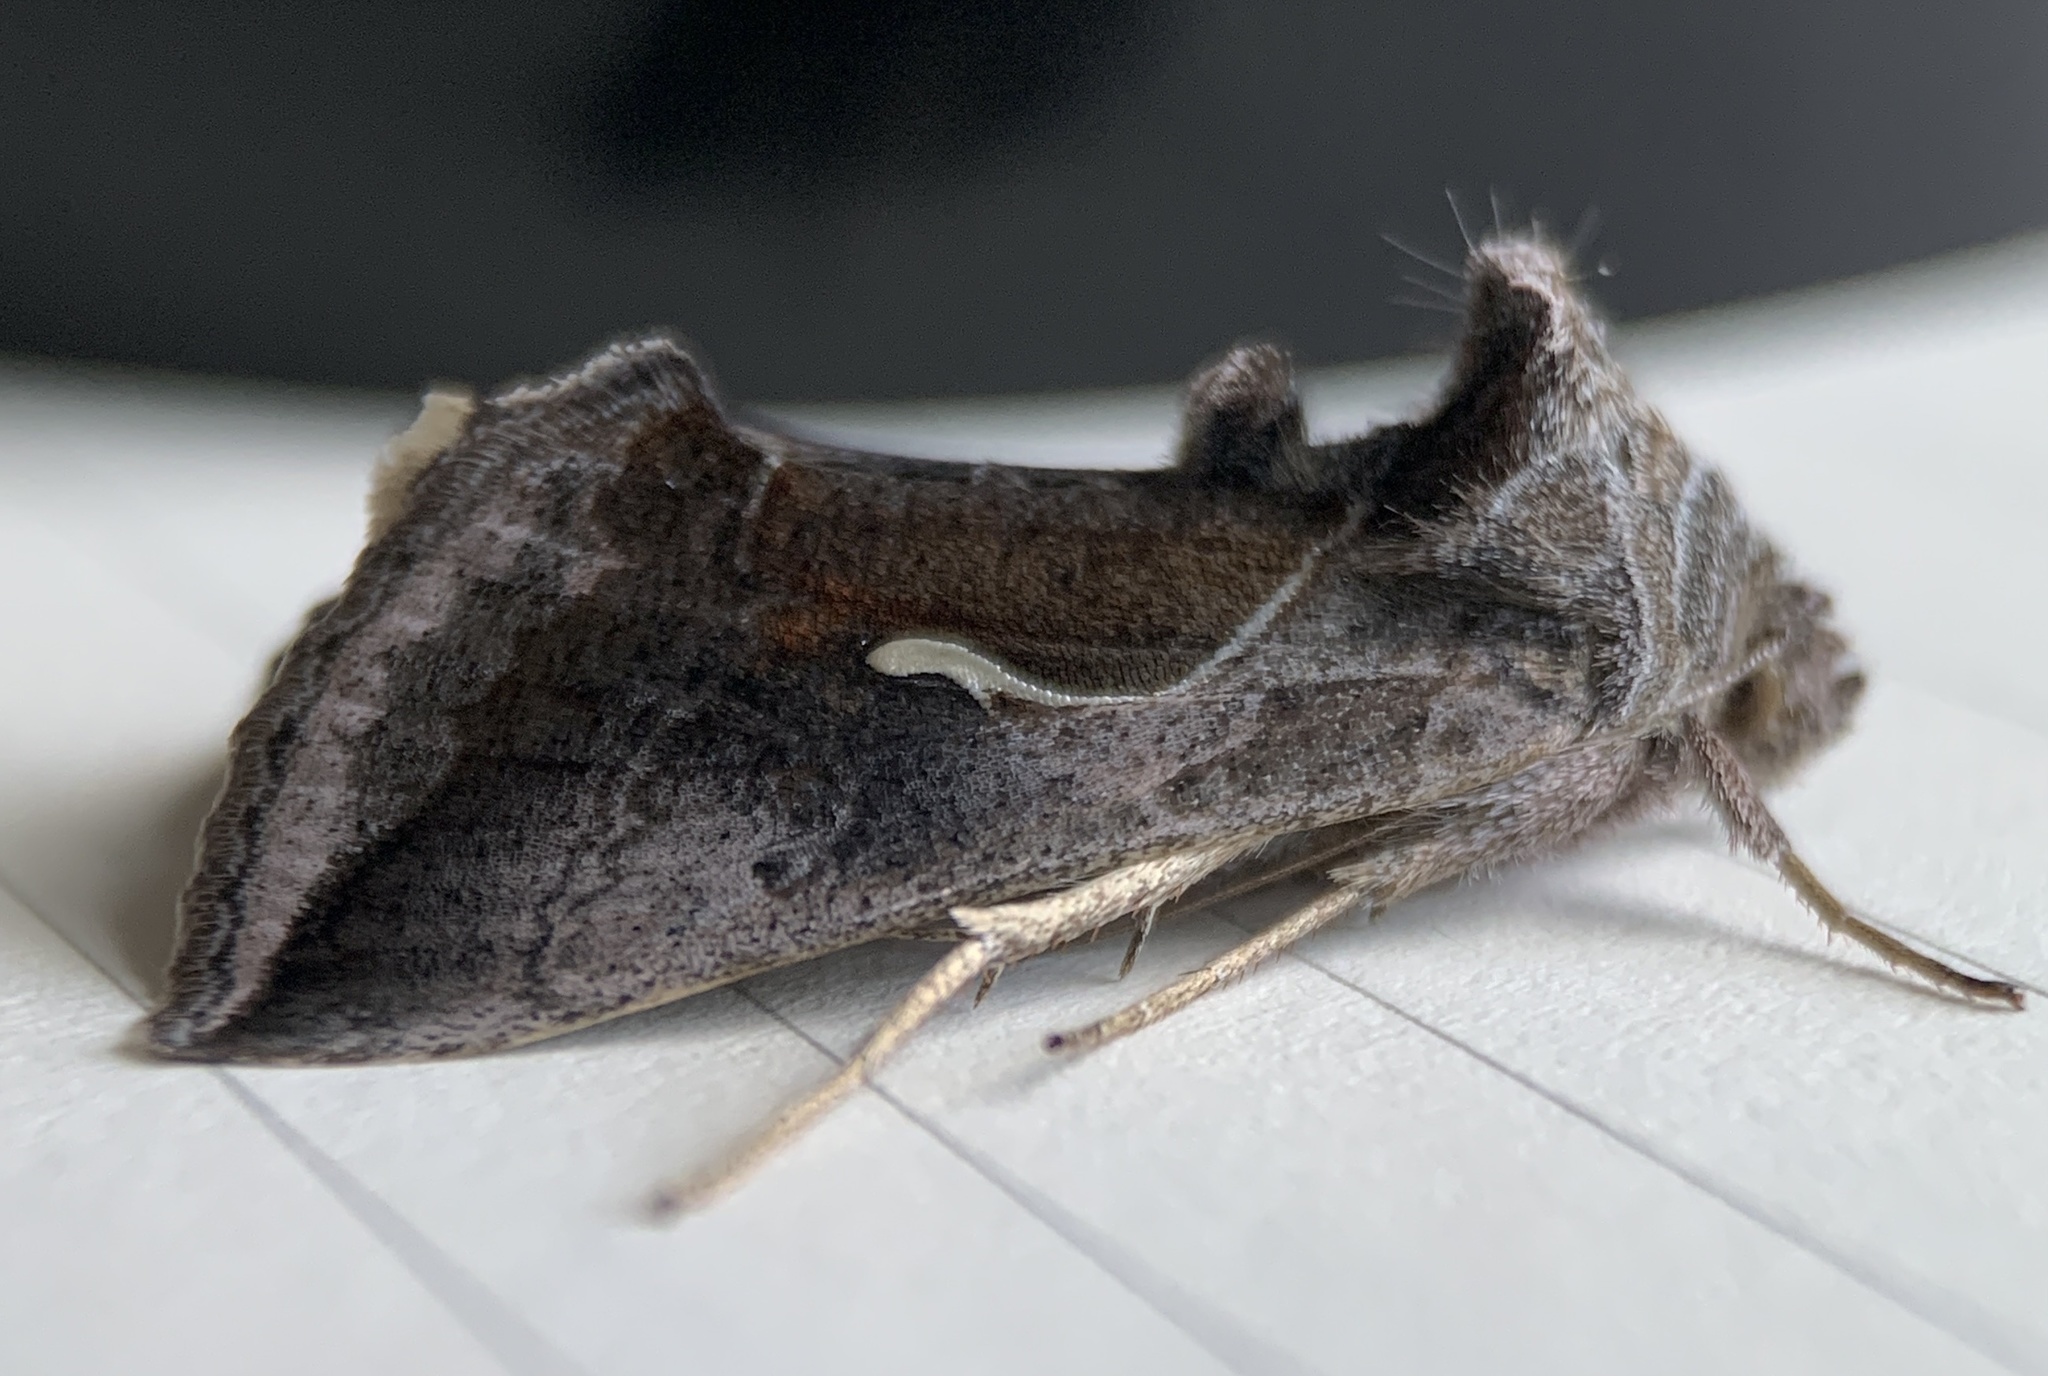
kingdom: Animalia
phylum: Arthropoda
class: Insecta
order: Lepidoptera
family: Noctuidae
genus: Anagrapha
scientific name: Anagrapha falcifera
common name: Celery looper
